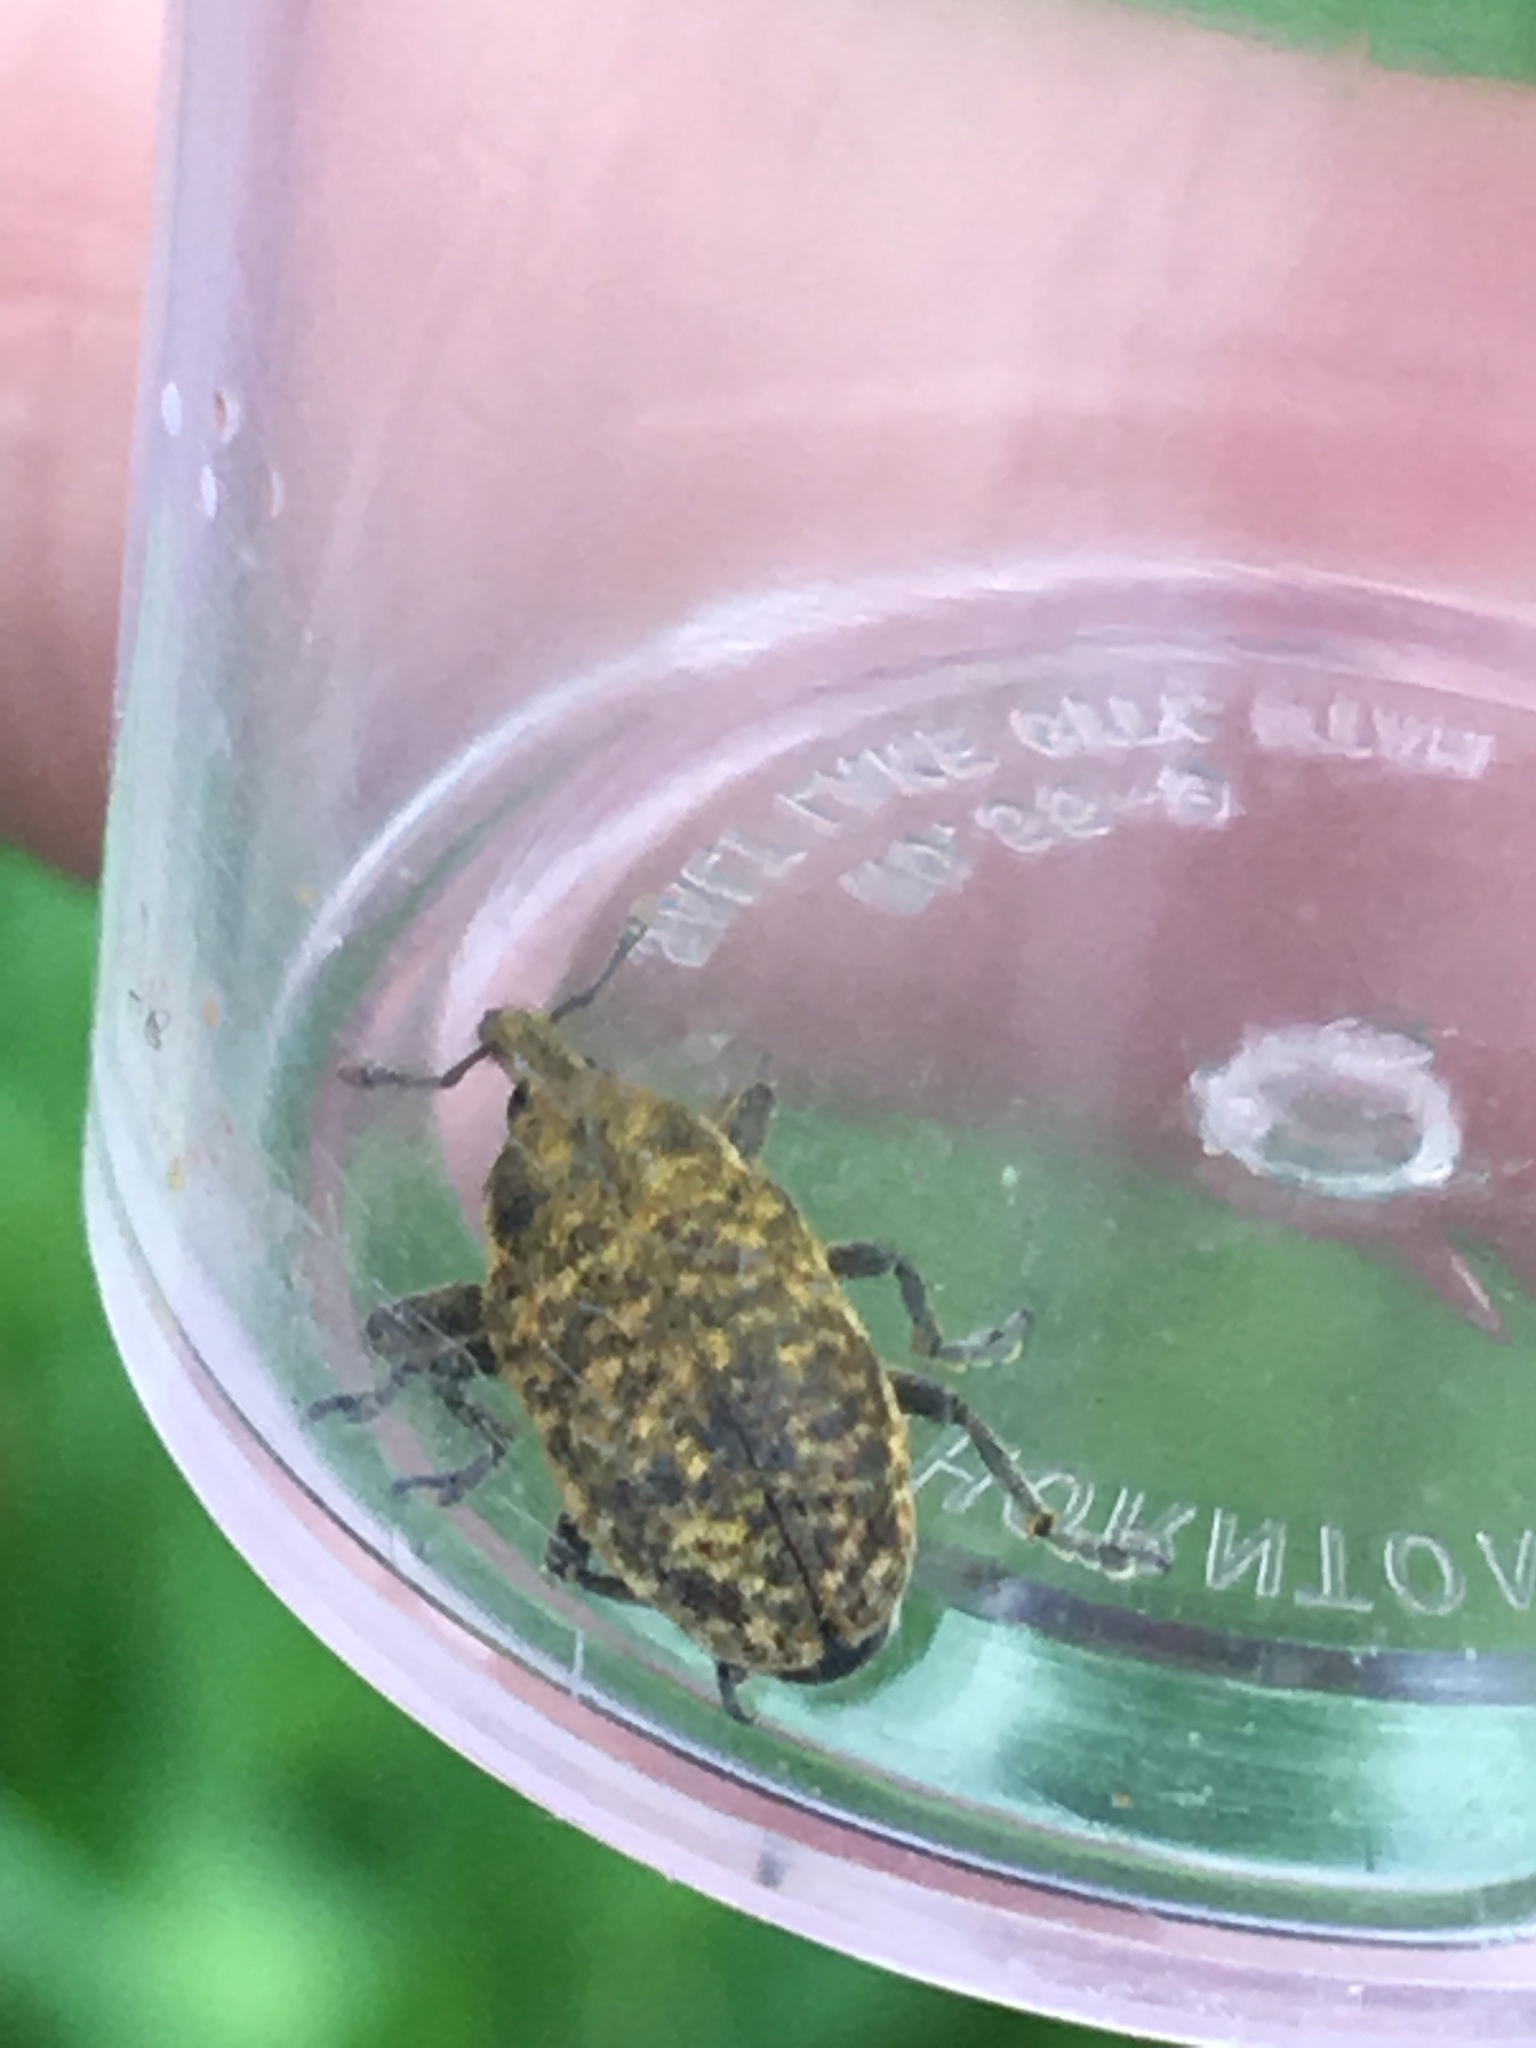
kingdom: Animalia
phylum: Arthropoda
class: Insecta
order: Coleoptera
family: Curculionidae
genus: Larinus
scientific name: Larinus carlinae
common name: Weevil
